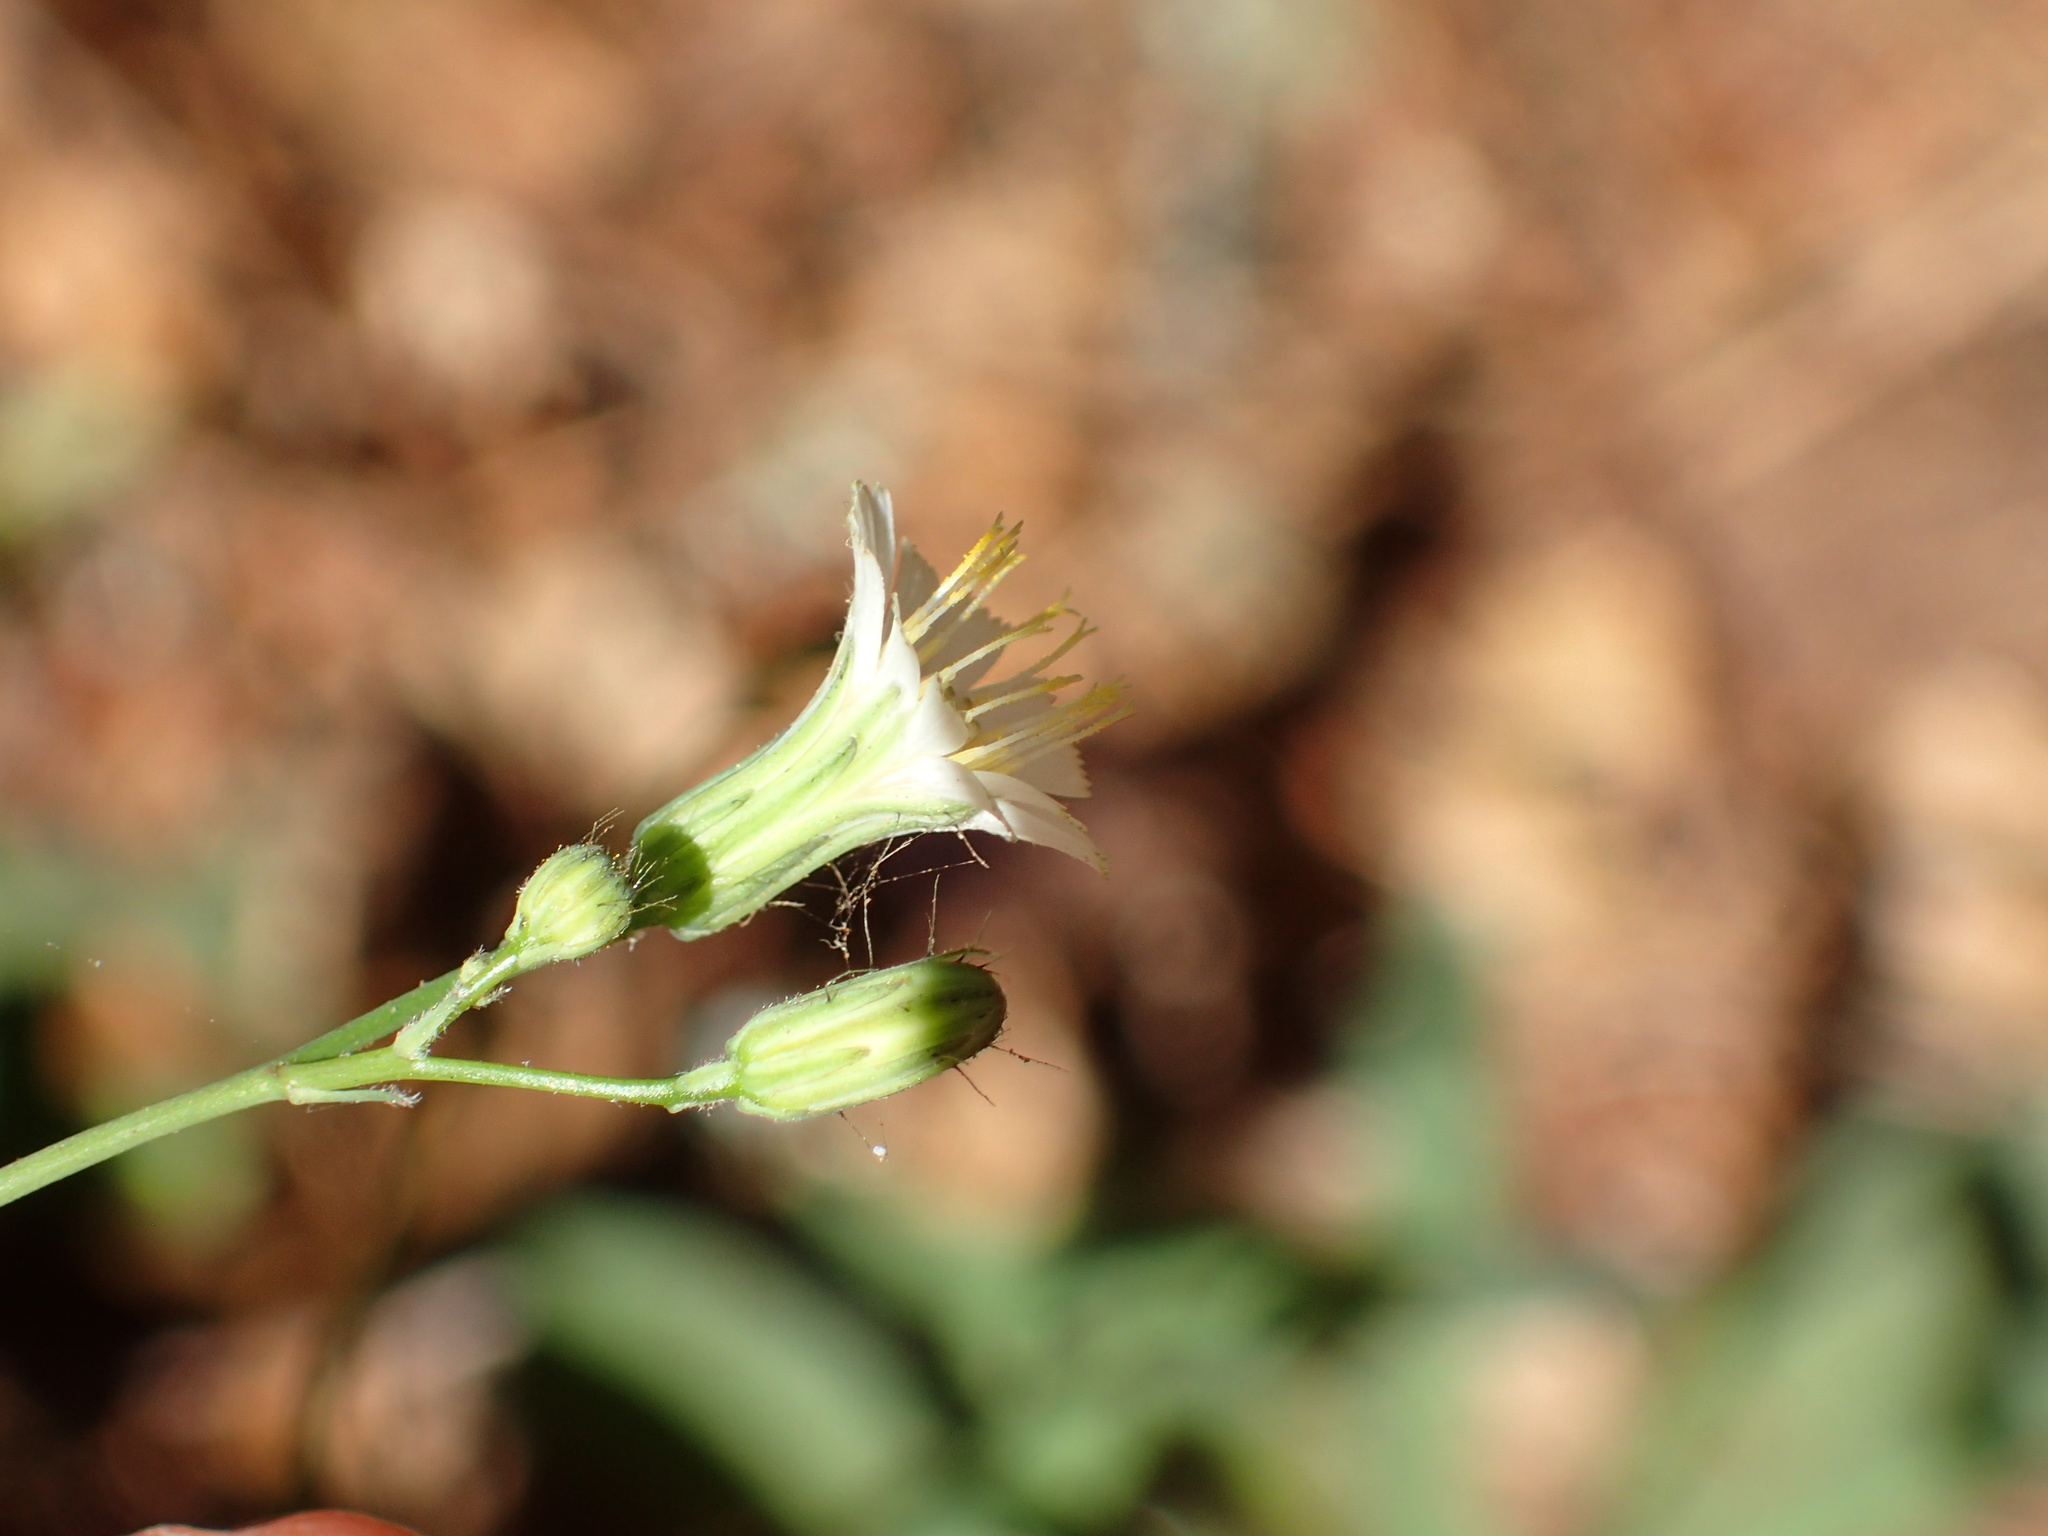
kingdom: Plantae
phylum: Tracheophyta
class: Magnoliopsida
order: Asterales
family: Asteraceae
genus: Hieracium
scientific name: Hieracium albiflorum
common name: White hawkweed
